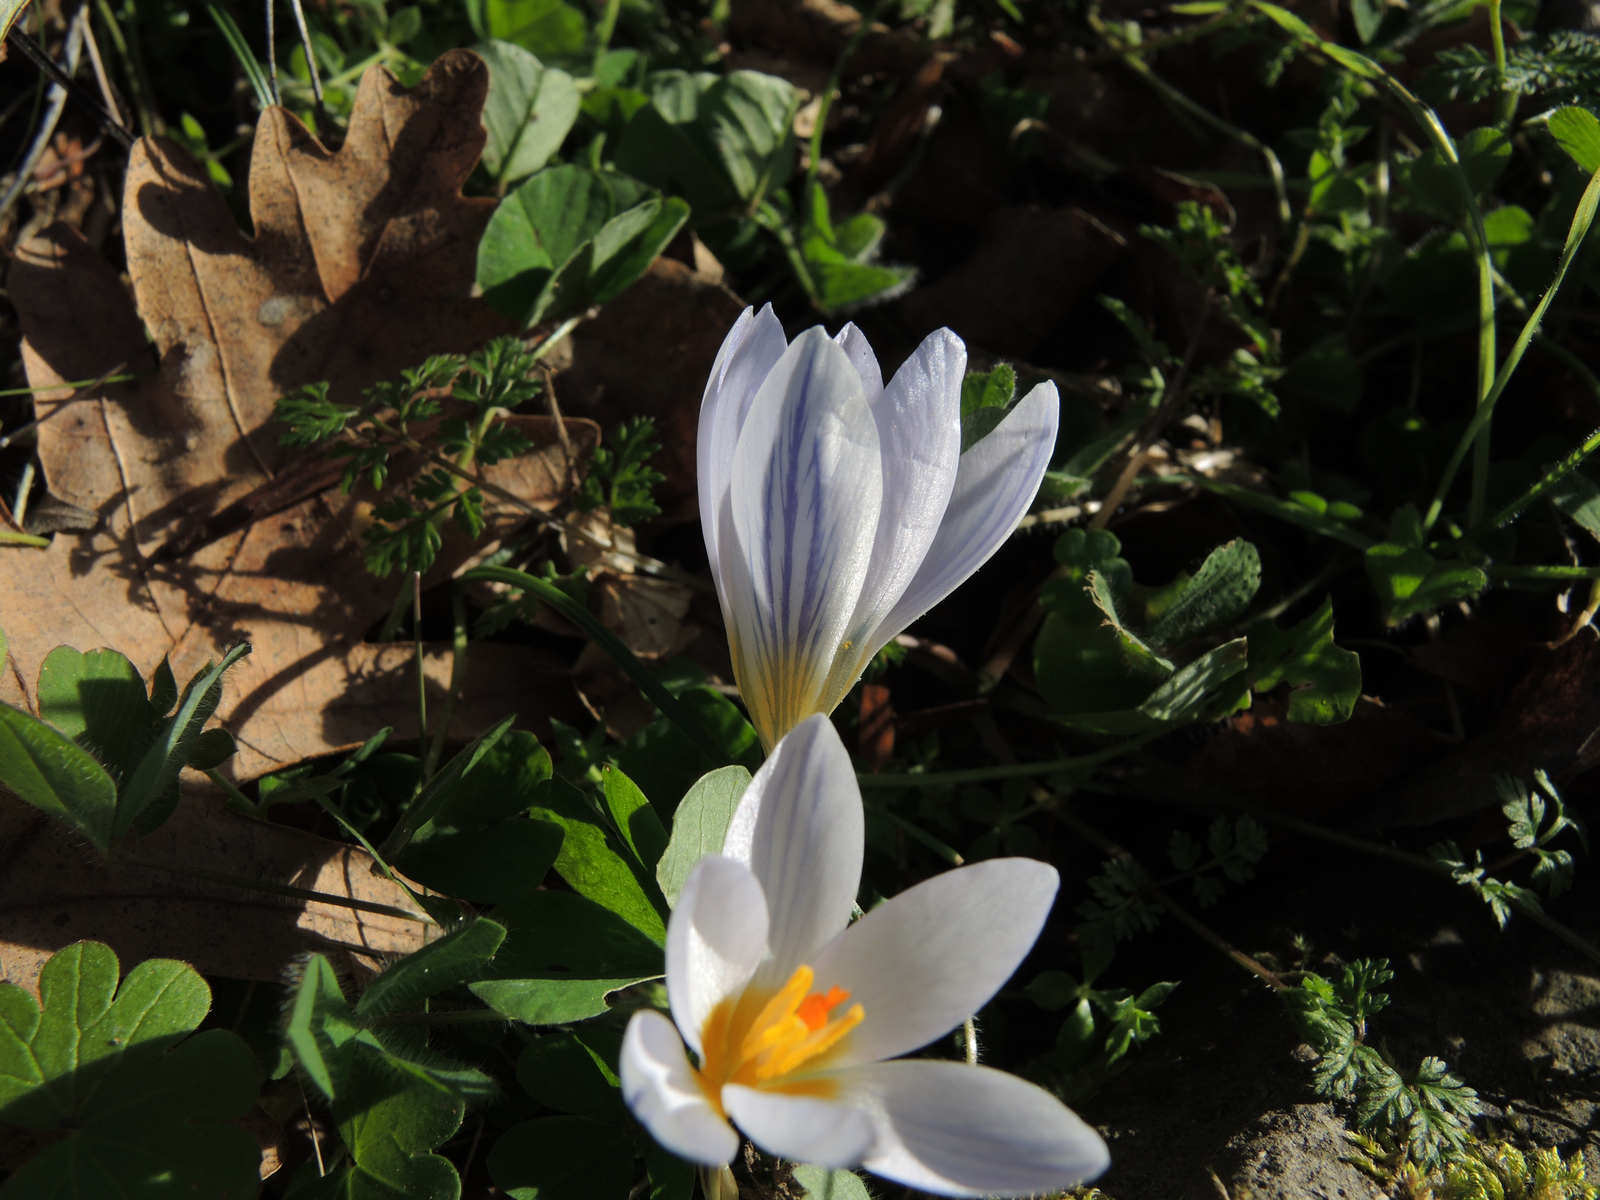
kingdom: Plantae
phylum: Tracheophyta
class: Liliopsida
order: Asparagales
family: Iridaceae
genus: Crocus
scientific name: Crocus adamioides
